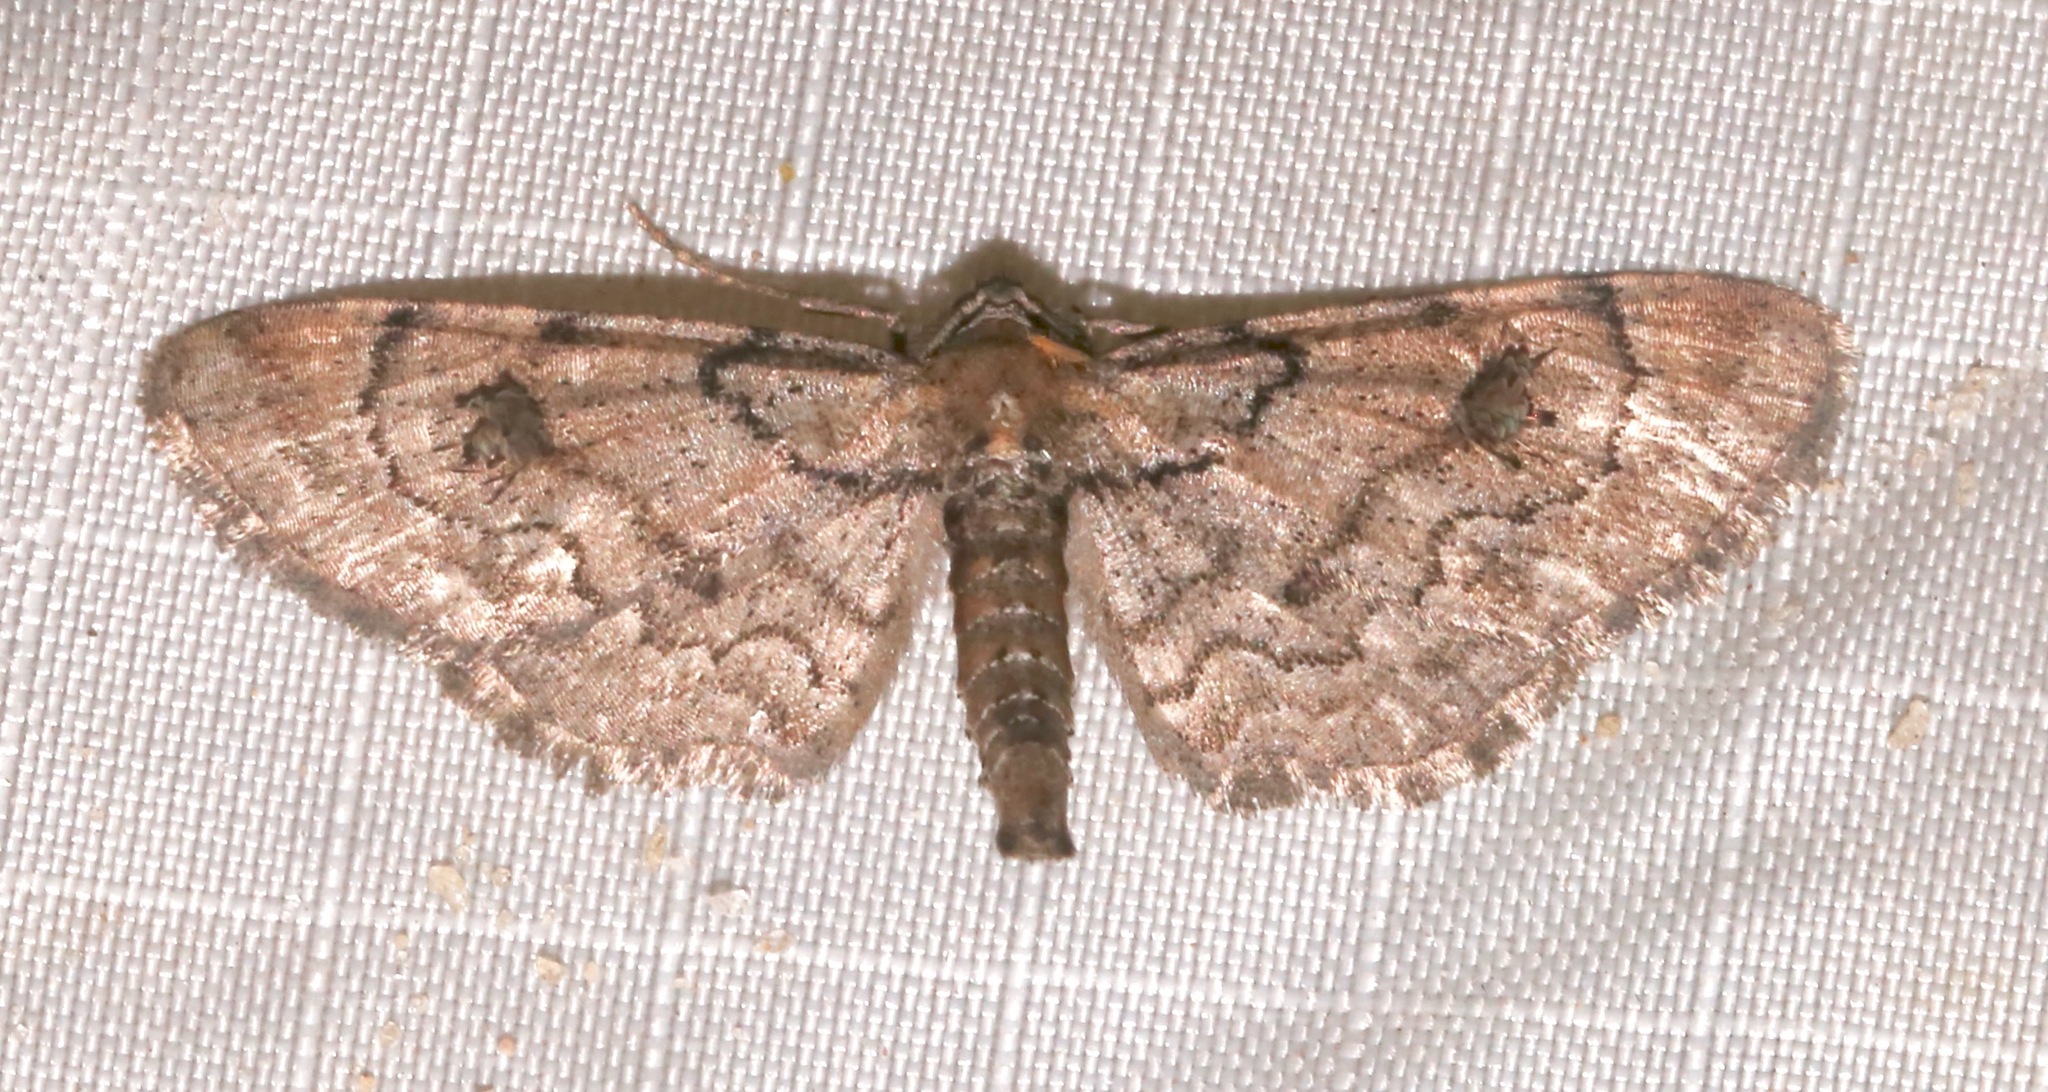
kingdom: Animalia
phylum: Arthropoda
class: Insecta
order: Lepidoptera
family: Geometridae
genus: Tornos
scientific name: Tornos cinctarius
